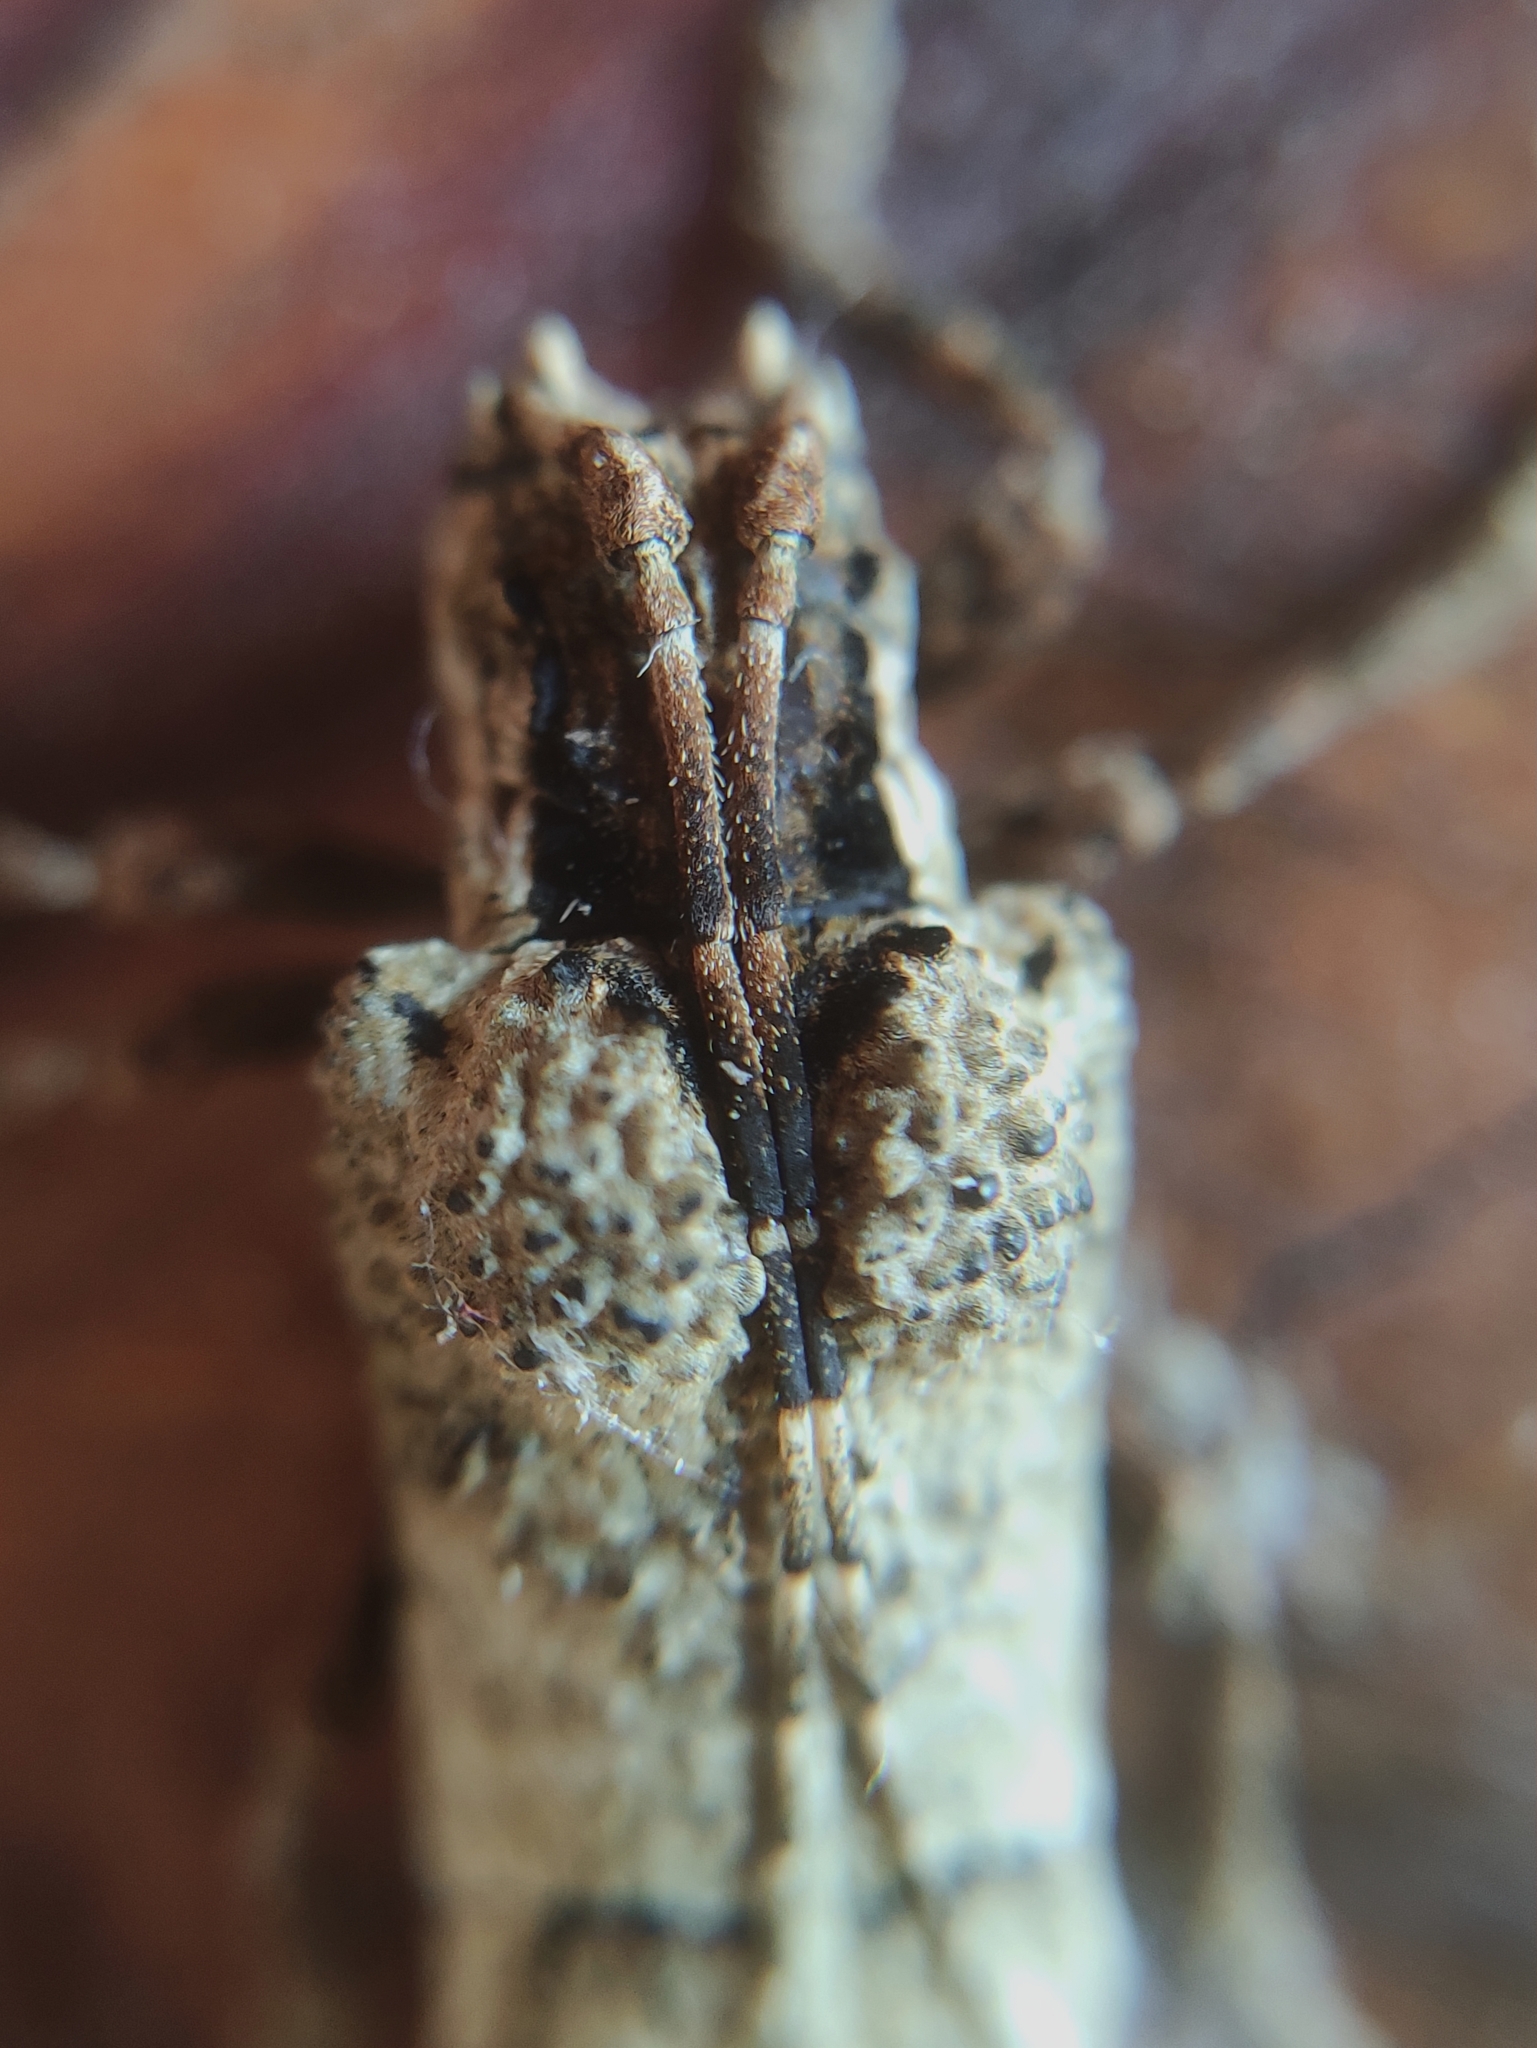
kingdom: Animalia
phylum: Arthropoda
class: Insecta
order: Coleoptera
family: Cerambycidae
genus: Trachysomus
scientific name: Trachysomus gibbosus
